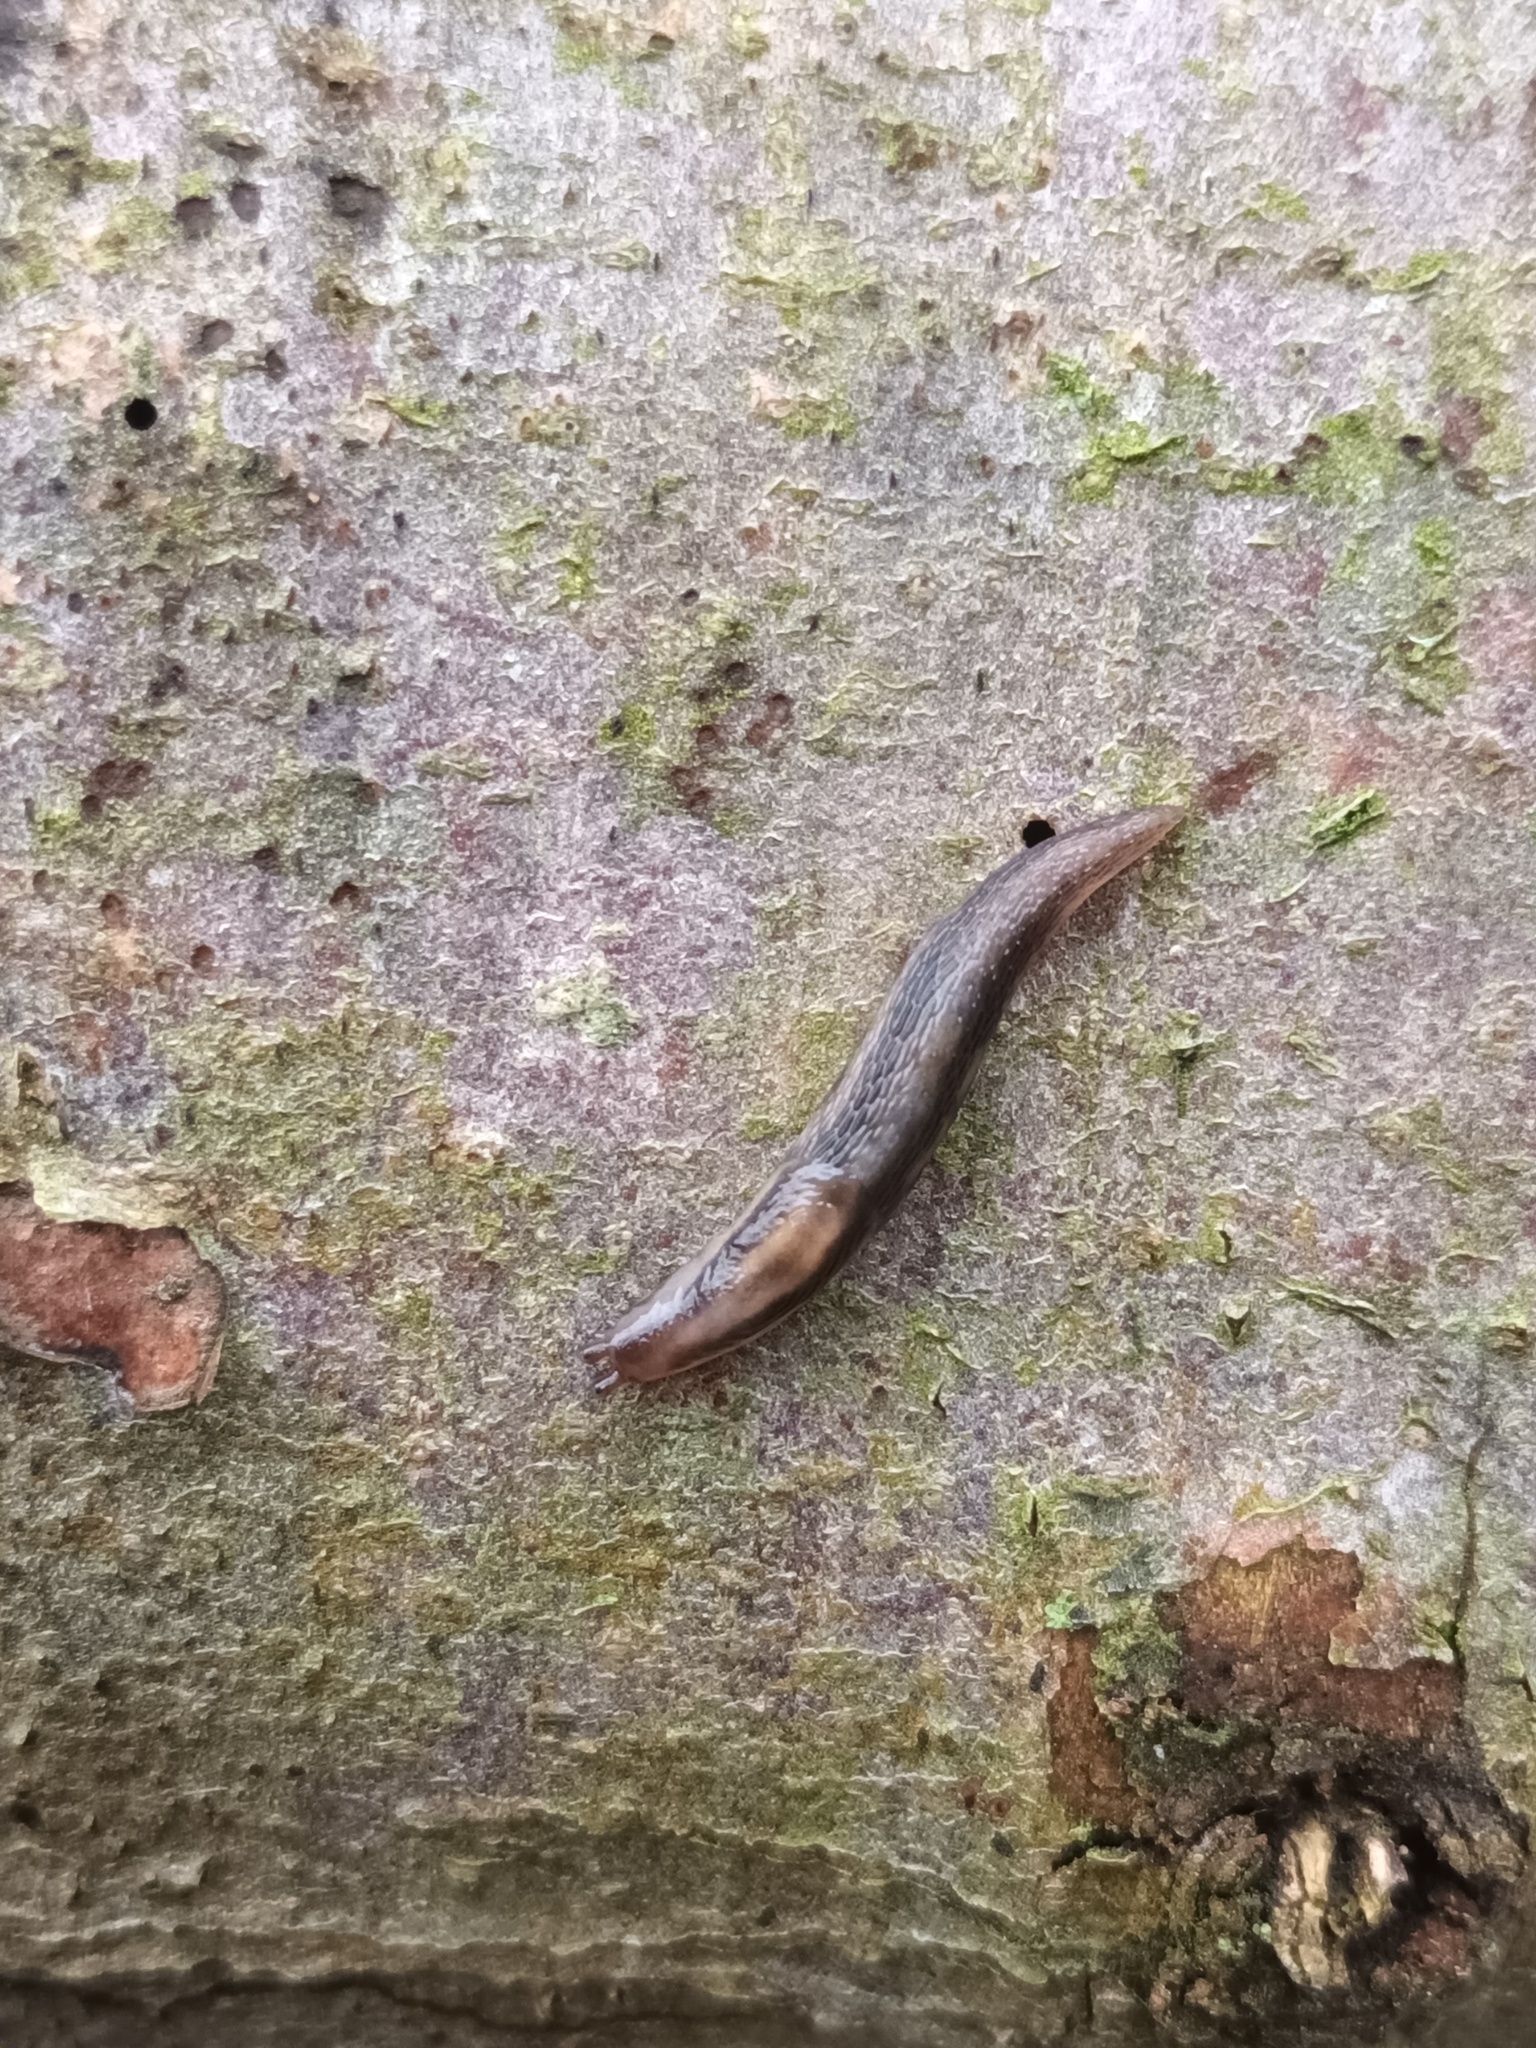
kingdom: Animalia
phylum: Mollusca
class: Gastropoda
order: Stylommatophora
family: Limacidae
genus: Lehmannia
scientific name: Lehmannia marginata
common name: Tree slug
